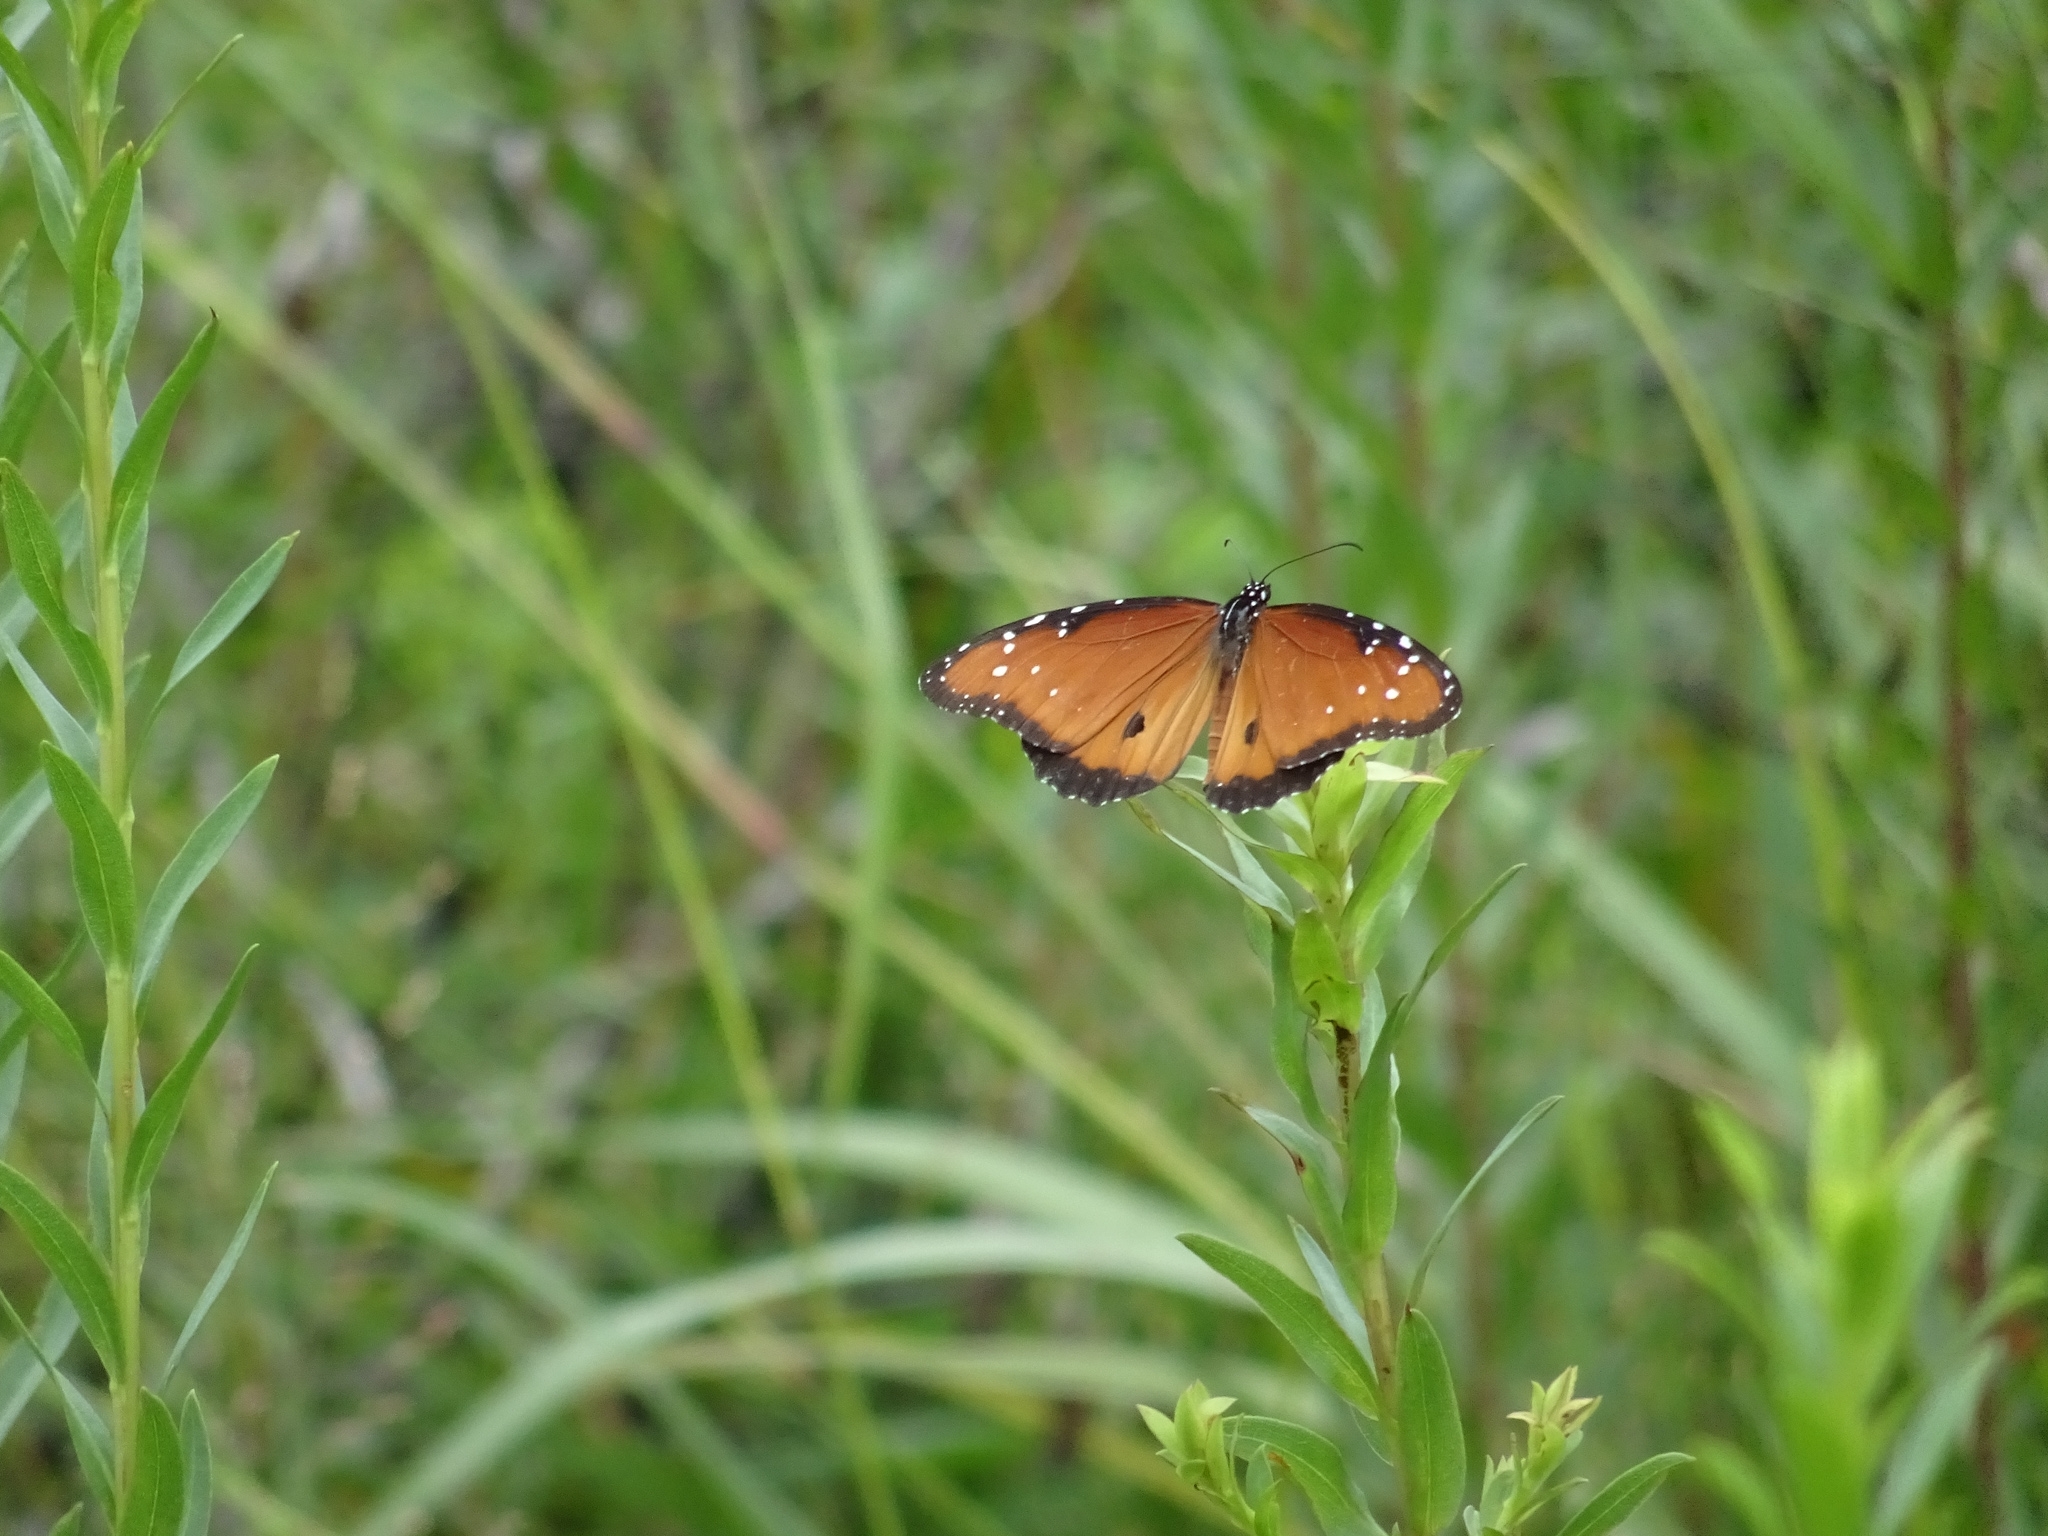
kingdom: Animalia
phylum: Arthropoda
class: Insecta
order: Lepidoptera
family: Nymphalidae
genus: Danaus
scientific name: Danaus gilippus
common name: Queen
